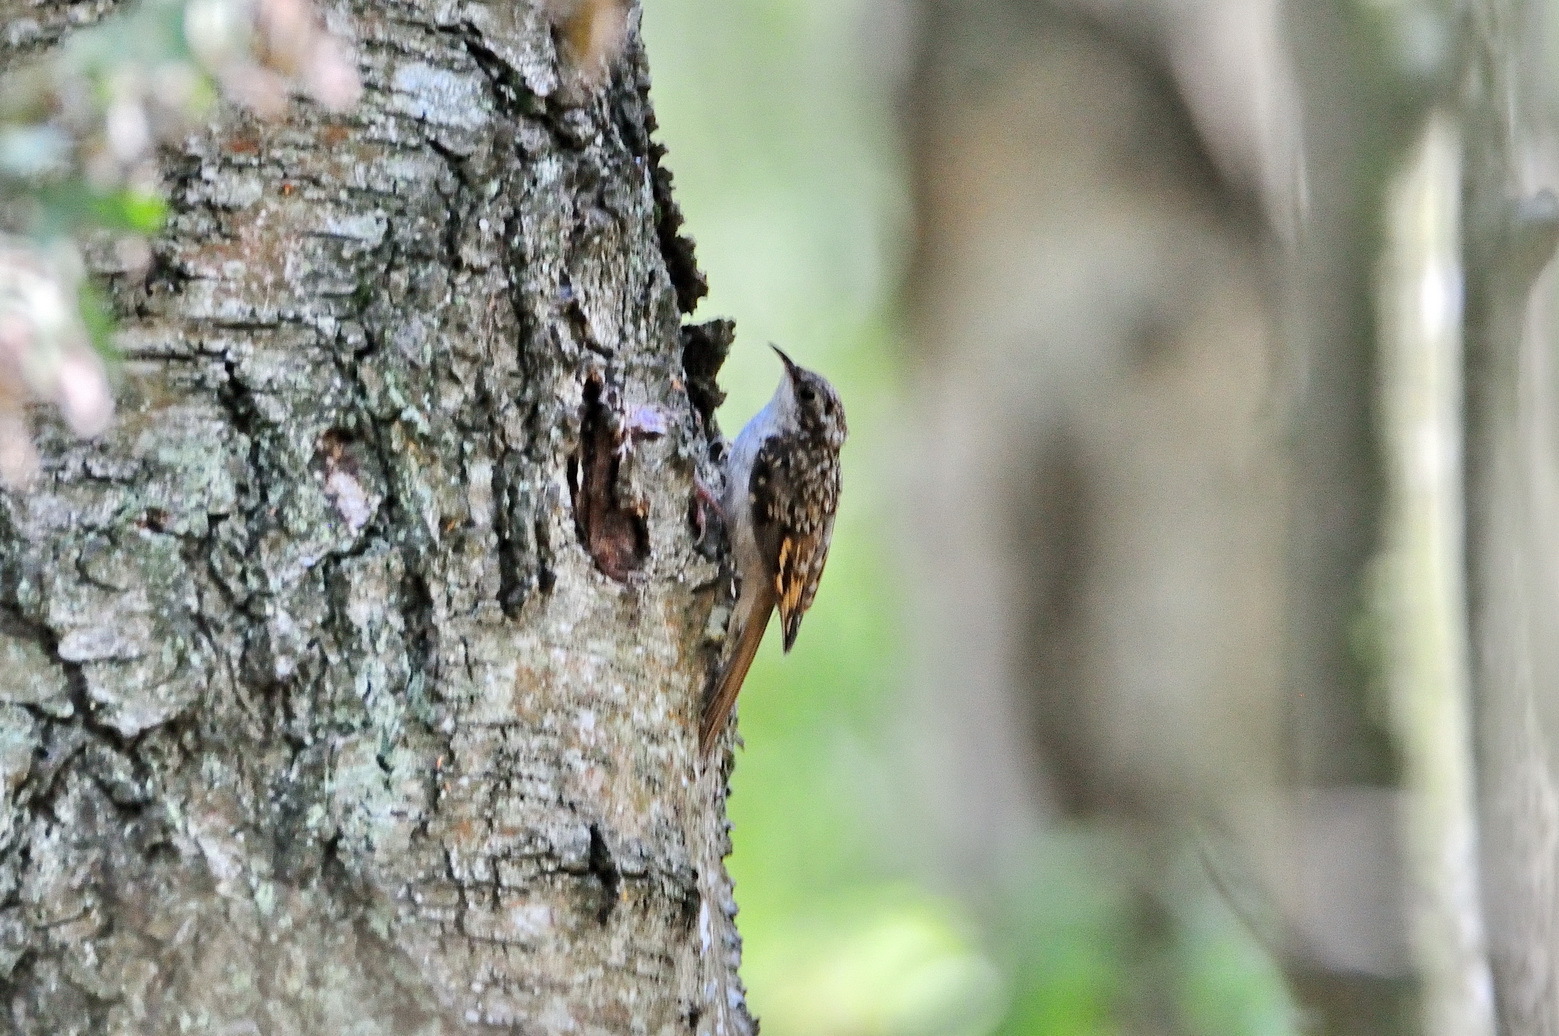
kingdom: Animalia
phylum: Chordata
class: Aves
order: Passeriformes
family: Certhiidae
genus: Certhia
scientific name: Certhia familiaris
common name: Eurasian treecreeper
